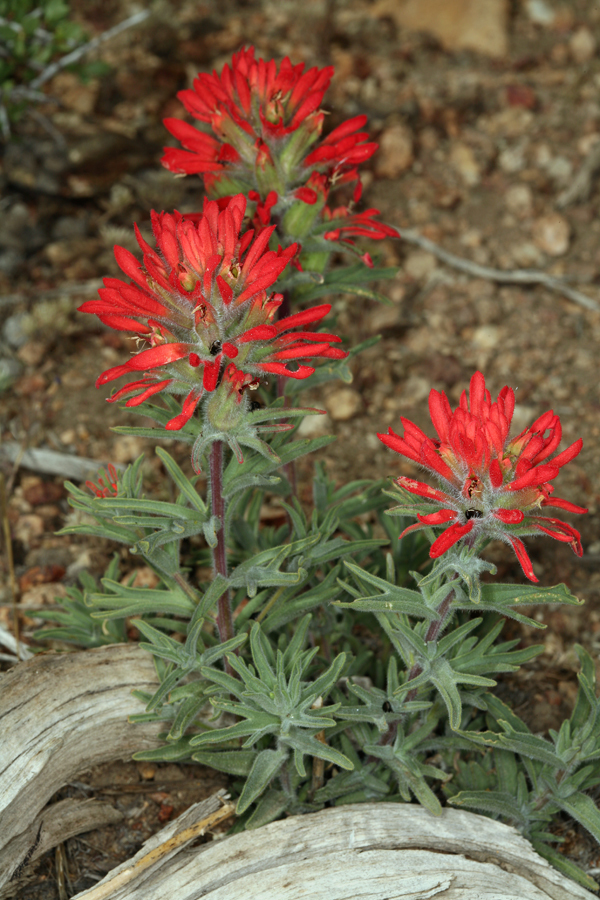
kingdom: Plantae
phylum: Tracheophyta
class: Magnoliopsida
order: Lamiales
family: Orobanchaceae
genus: Castilleja
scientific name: Castilleja chromosa
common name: Desert paintbrush
